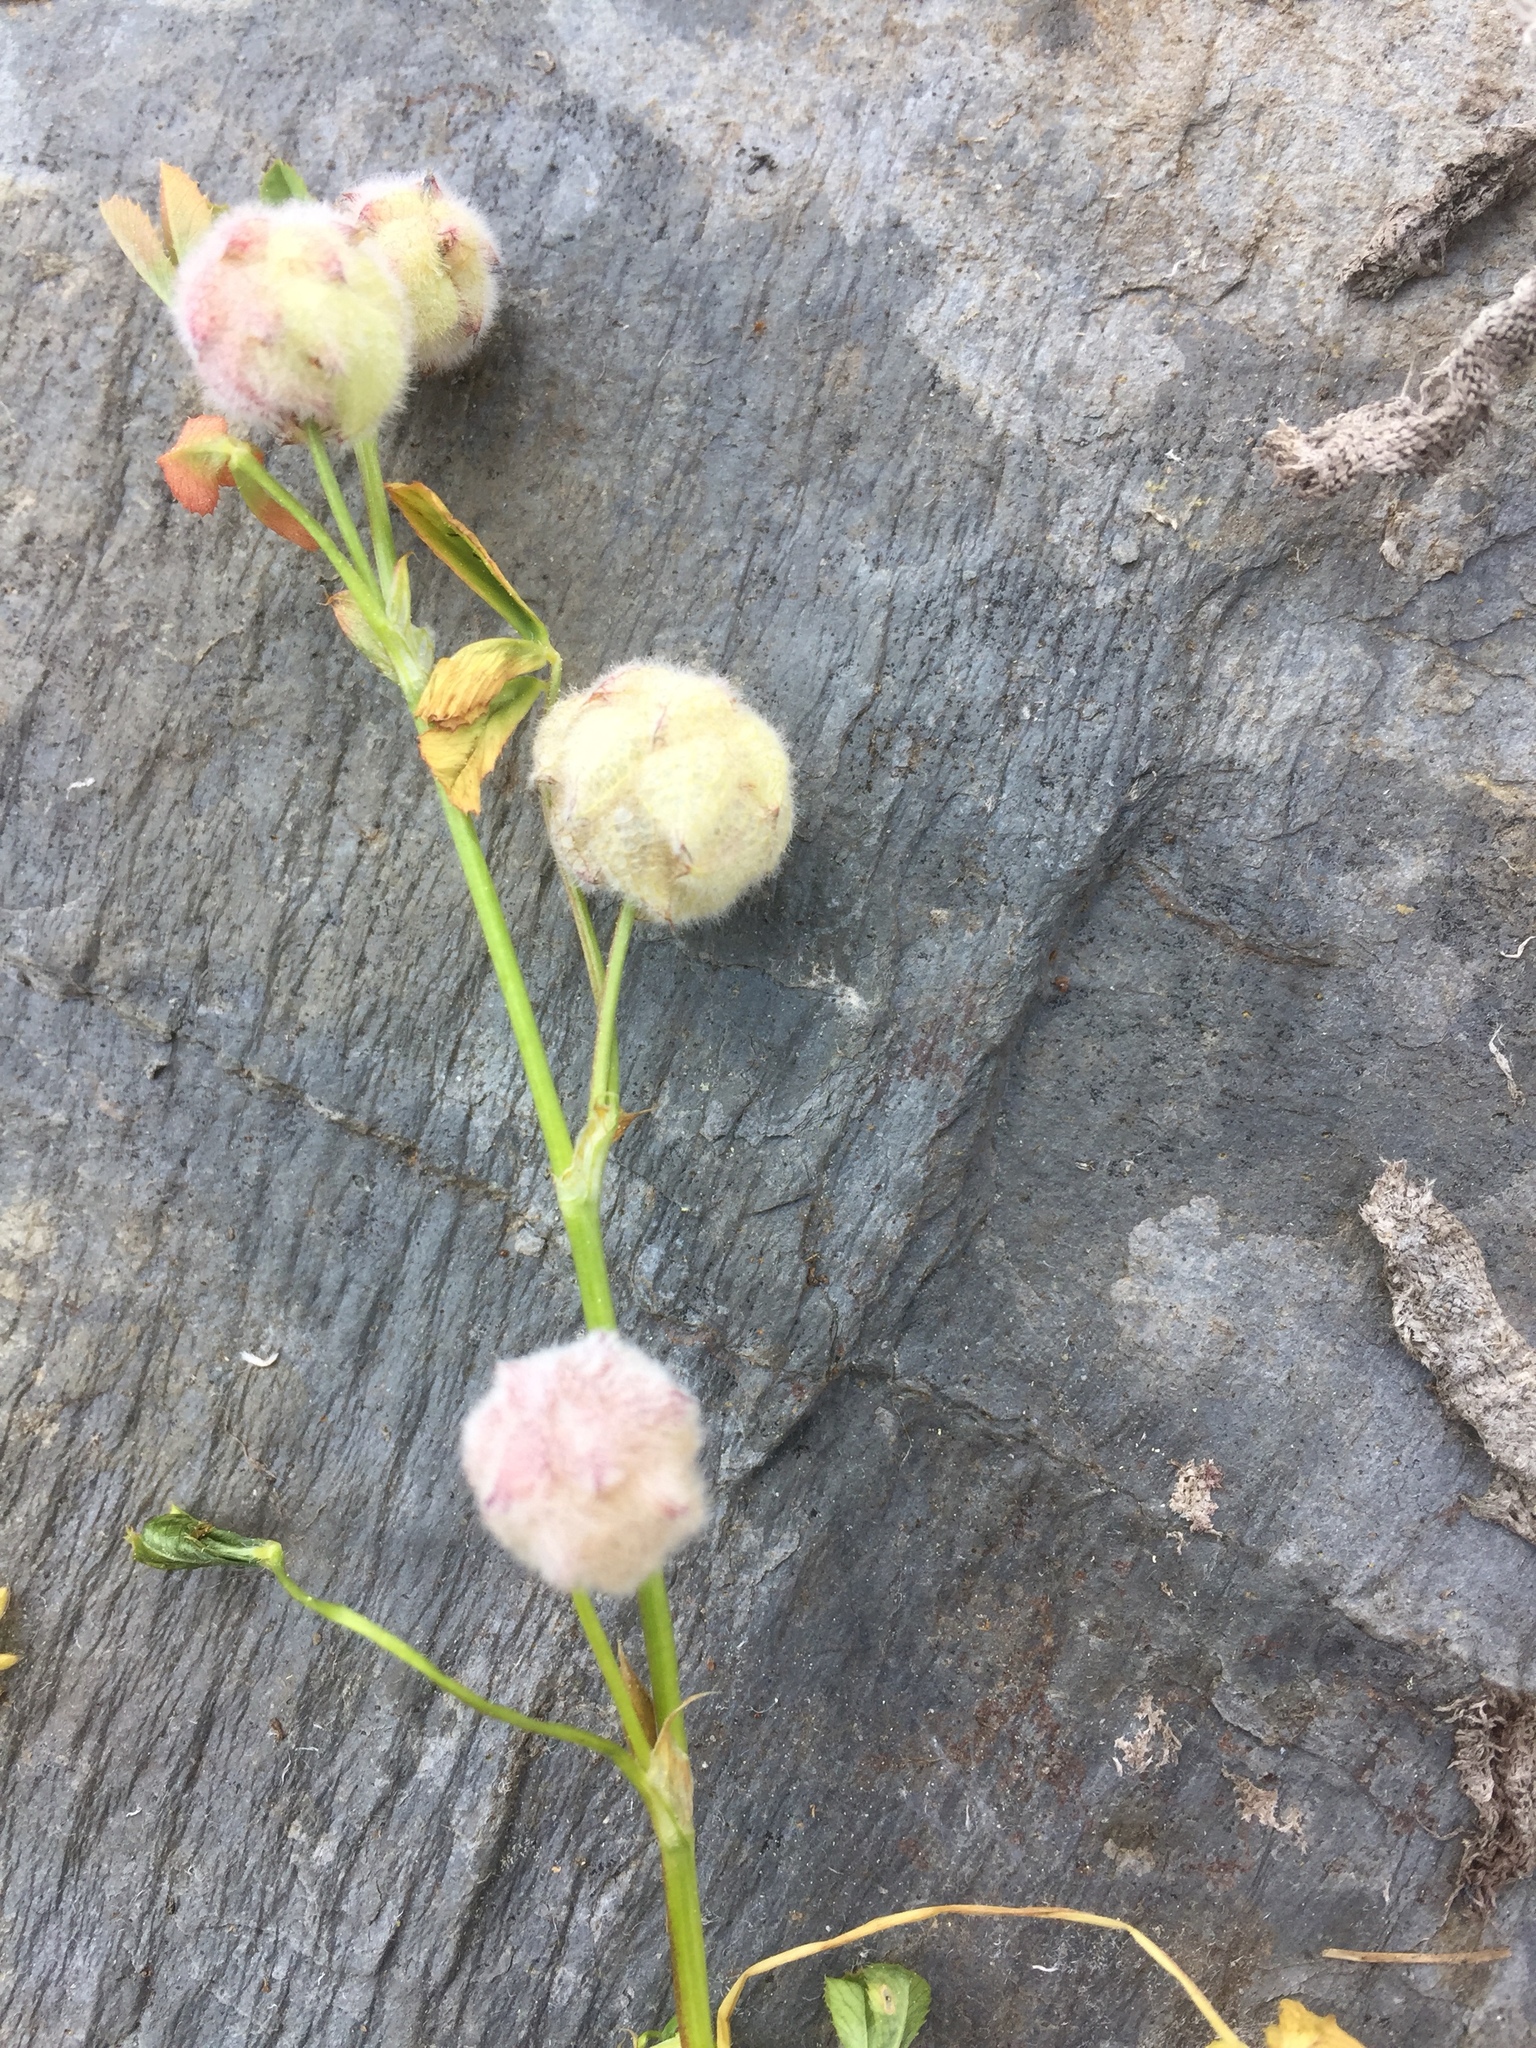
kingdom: Plantae
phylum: Tracheophyta
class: Magnoliopsida
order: Fabales
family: Fabaceae
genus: Trifolium
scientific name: Trifolium tomentosum
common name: Woolly clover
